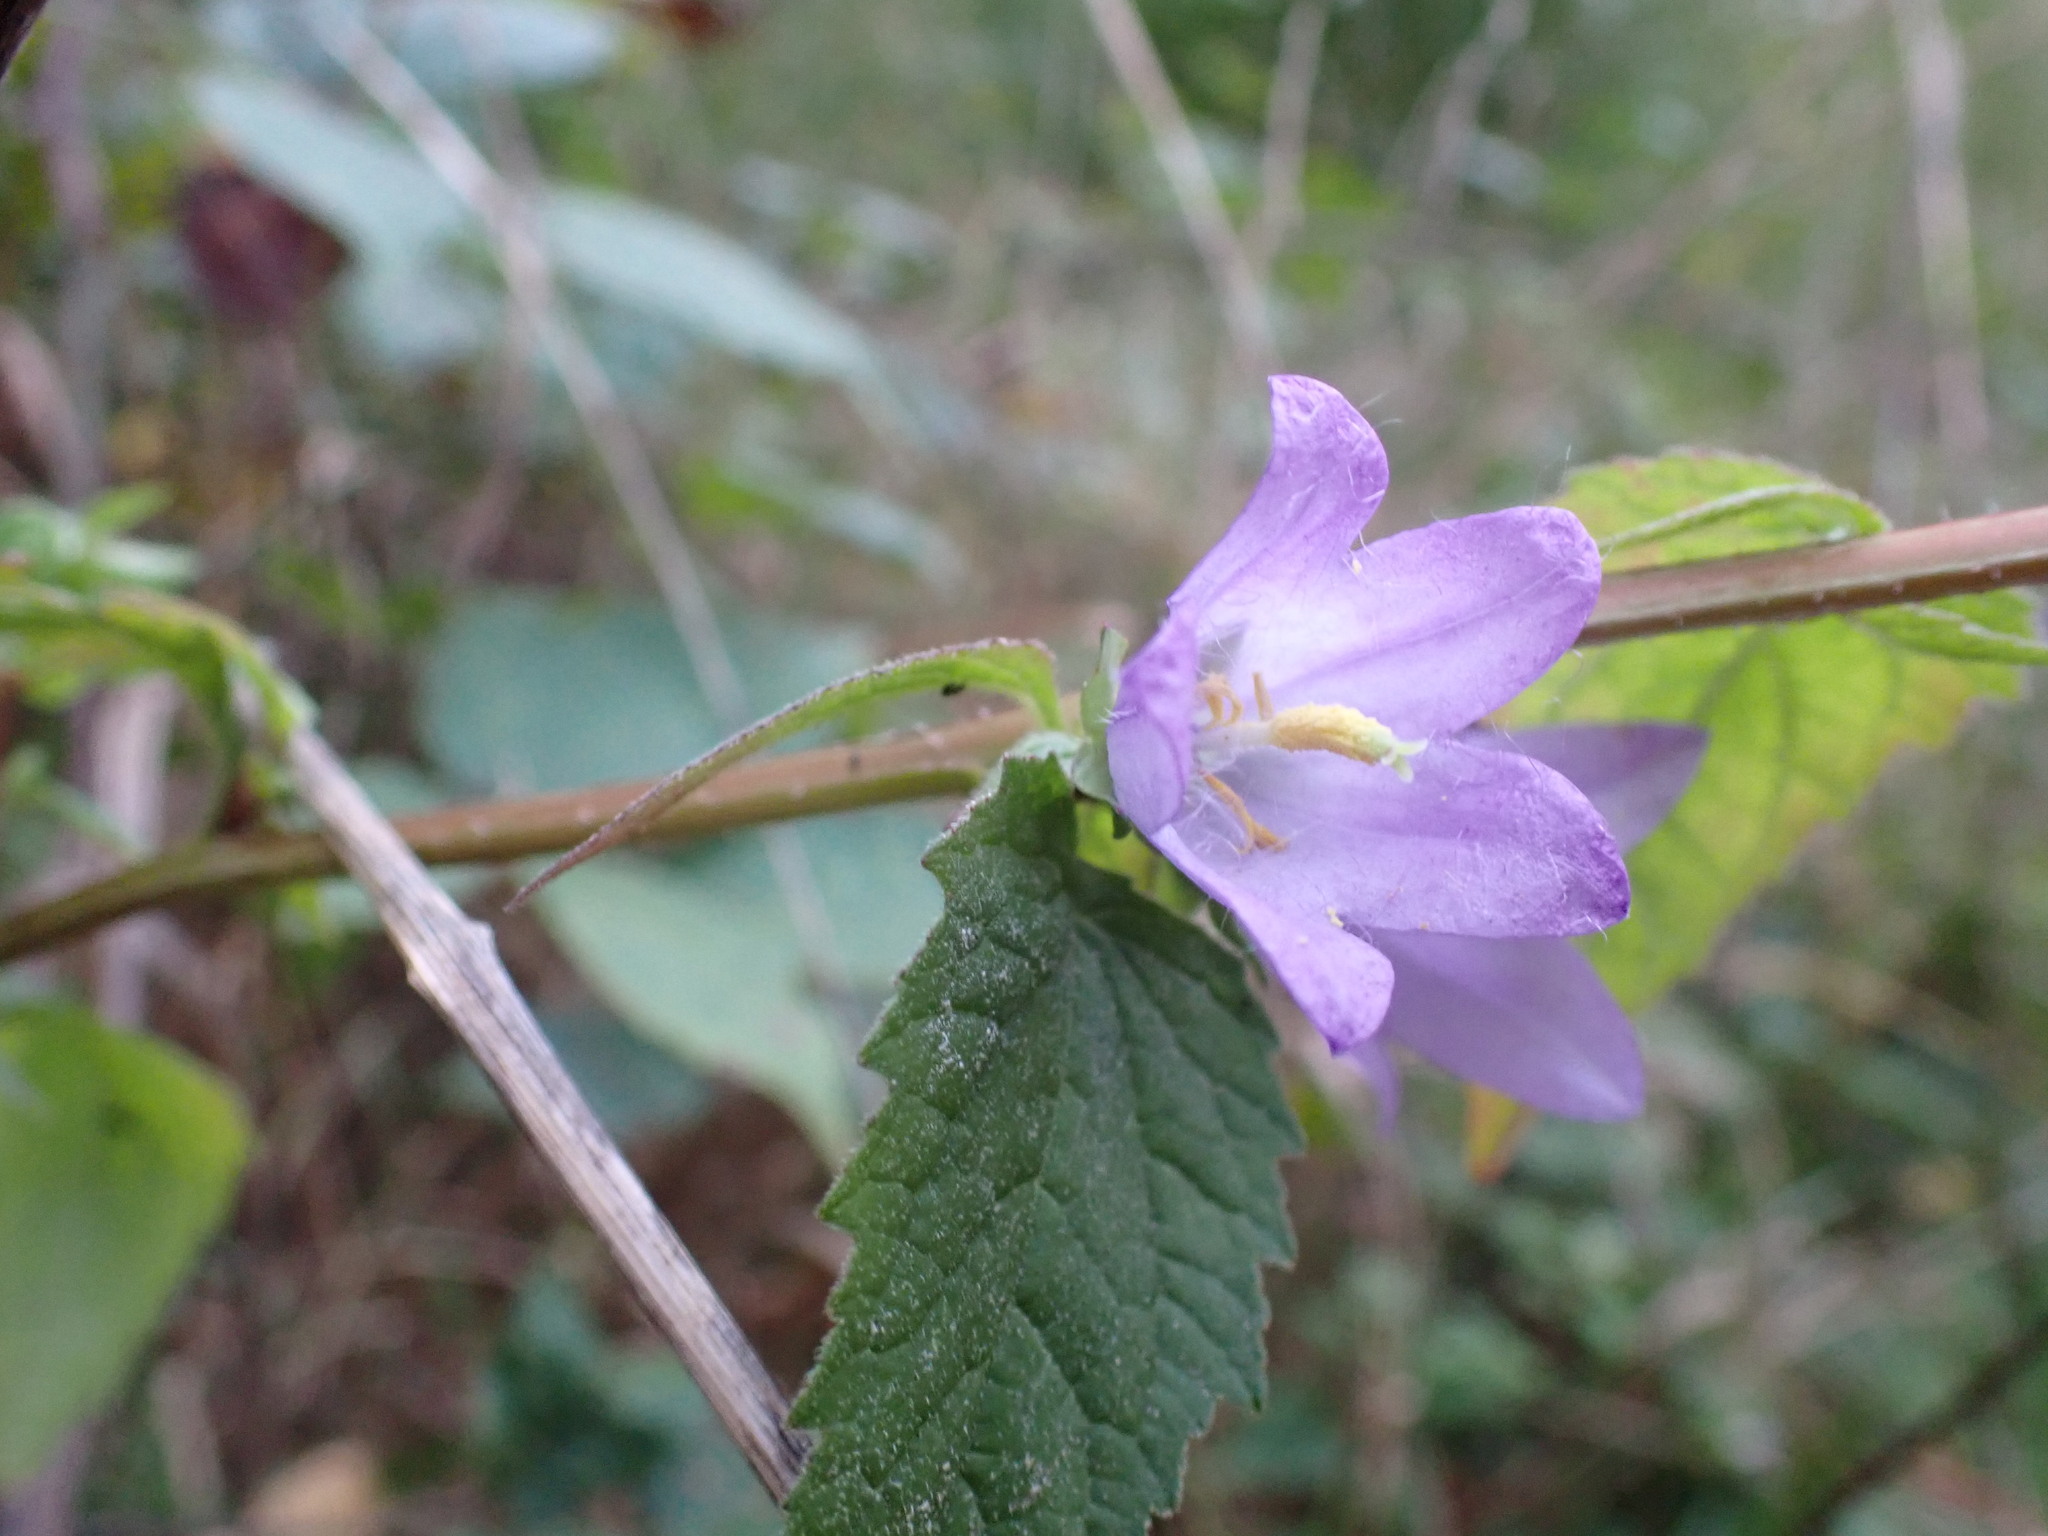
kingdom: Plantae
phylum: Tracheophyta
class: Magnoliopsida
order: Asterales
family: Campanulaceae
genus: Campanula
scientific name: Campanula trachelium
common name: Nettle-leaved bellflower
